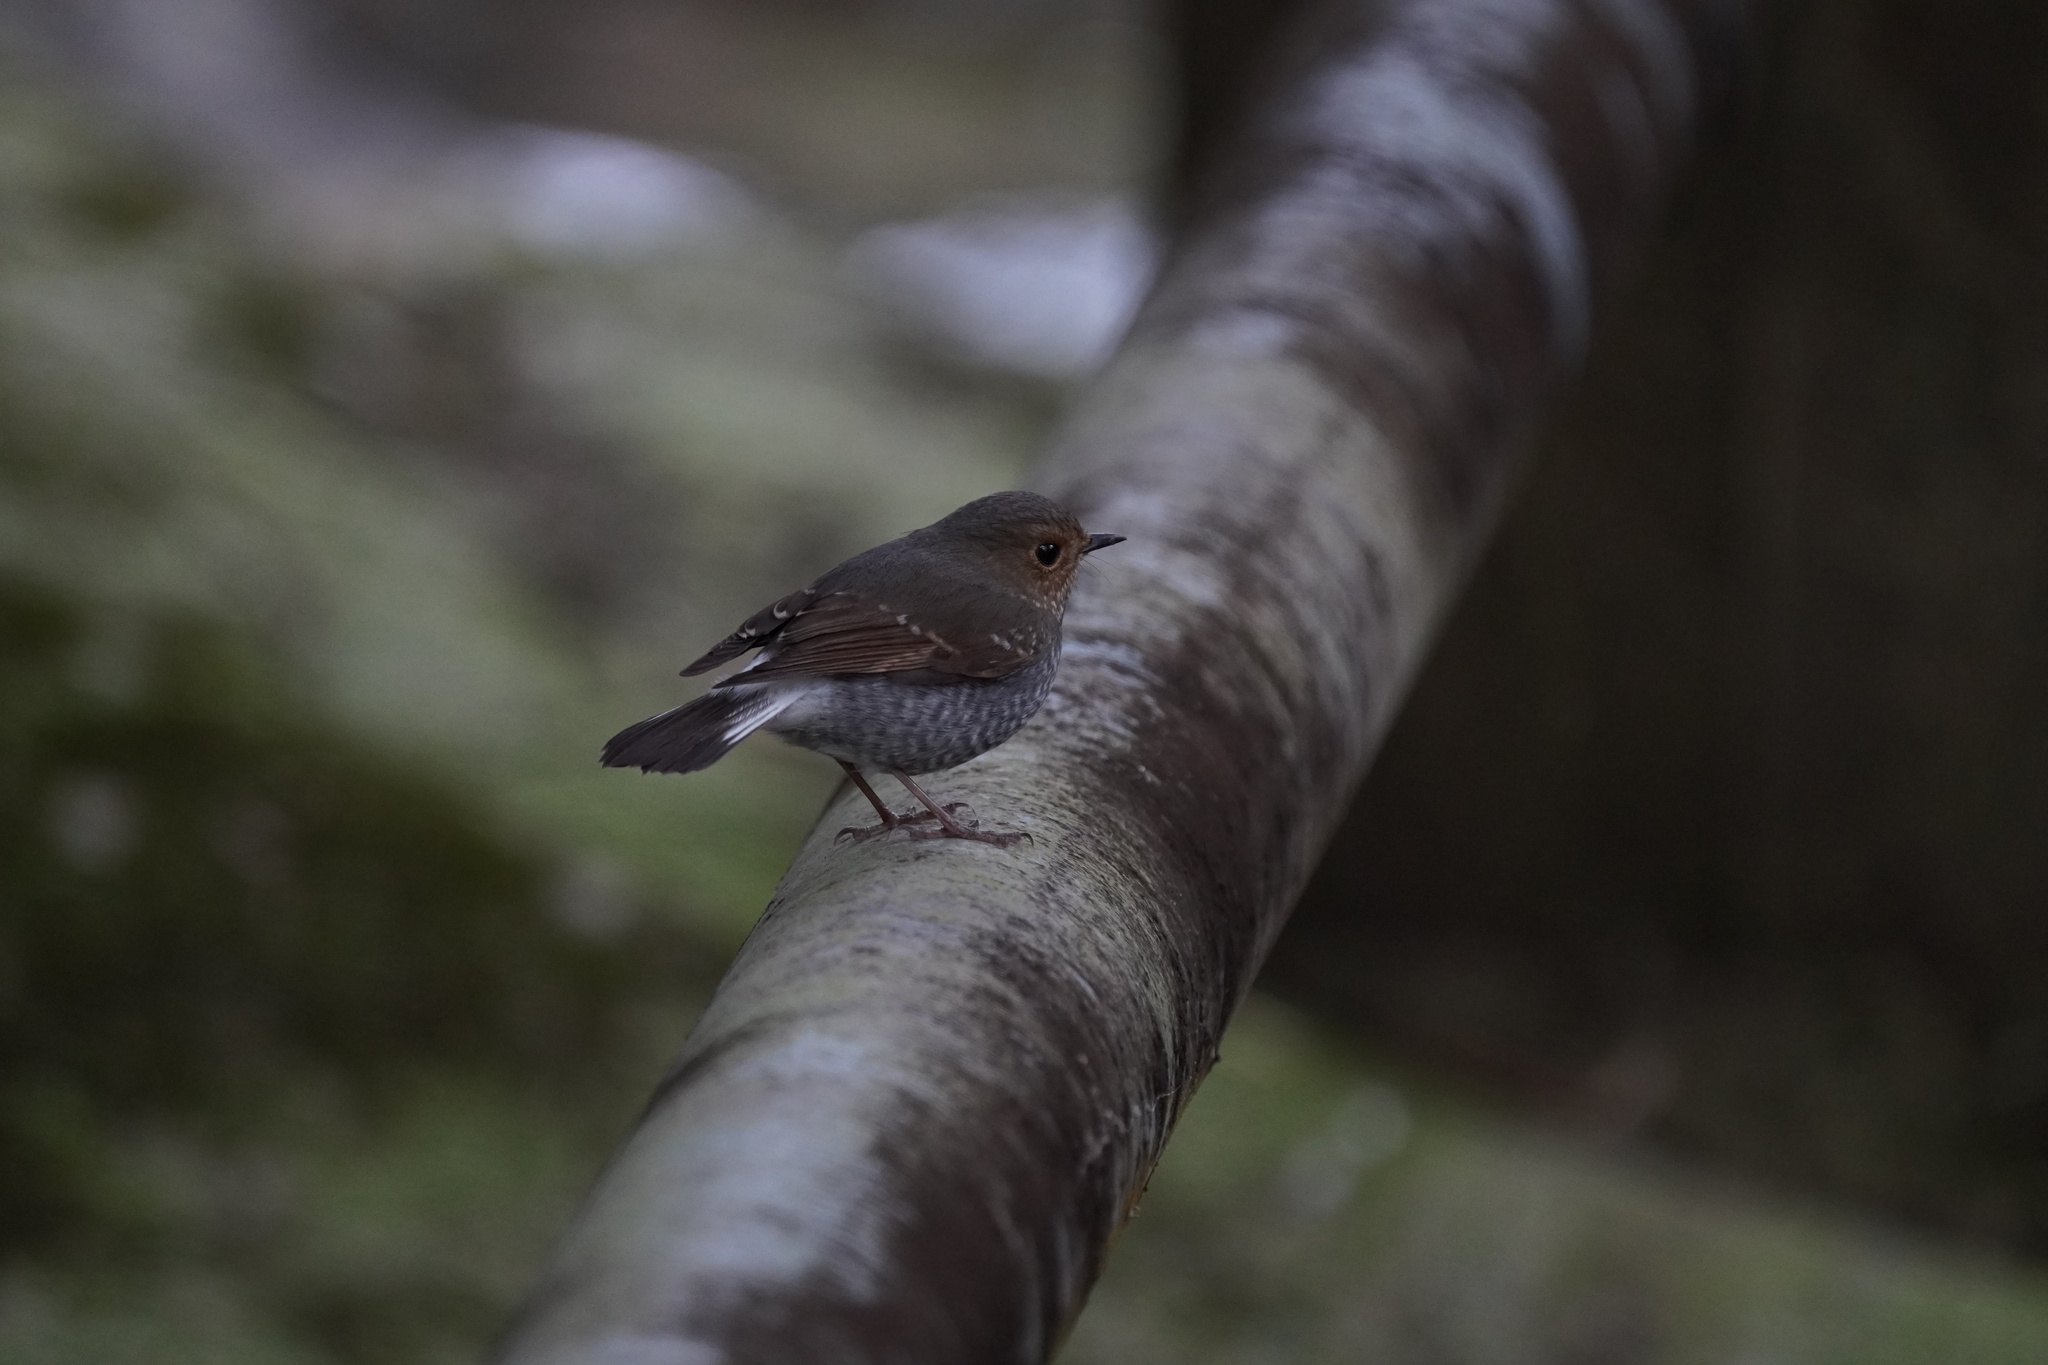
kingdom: Animalia
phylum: Chordata
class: Aves
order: Passeriformes
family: Muscicapidae
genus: Phoenicurus
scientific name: Phoenicurus fuliginosus
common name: Plumbeous water redstart
